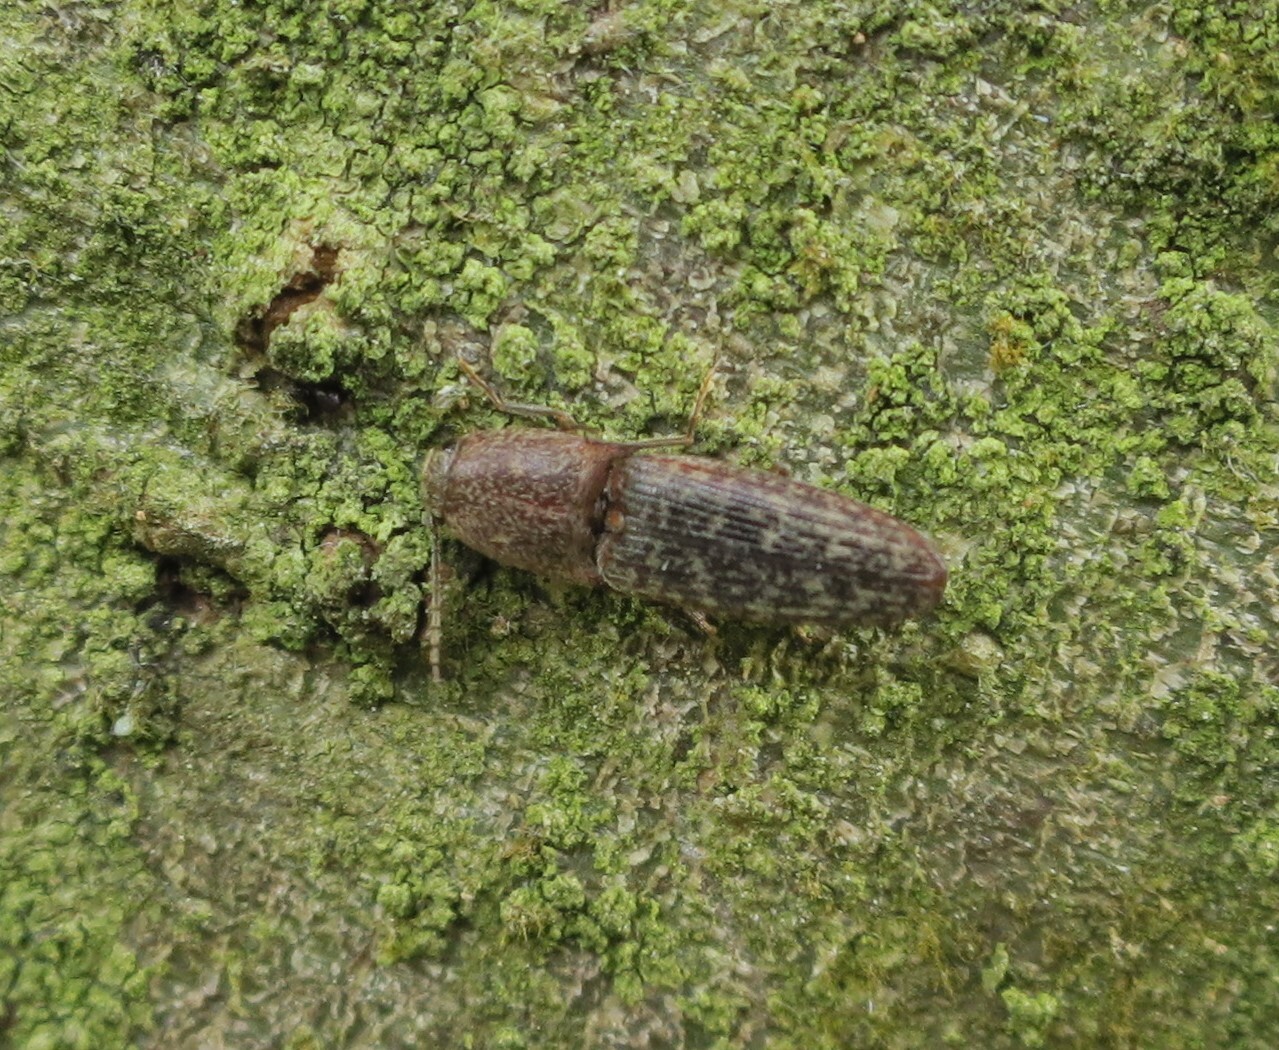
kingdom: Animalia
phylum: Arthropoda
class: Insecta
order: Coleoptera
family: Elateridae
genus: Monocrepidius
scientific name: Monocrepidius
